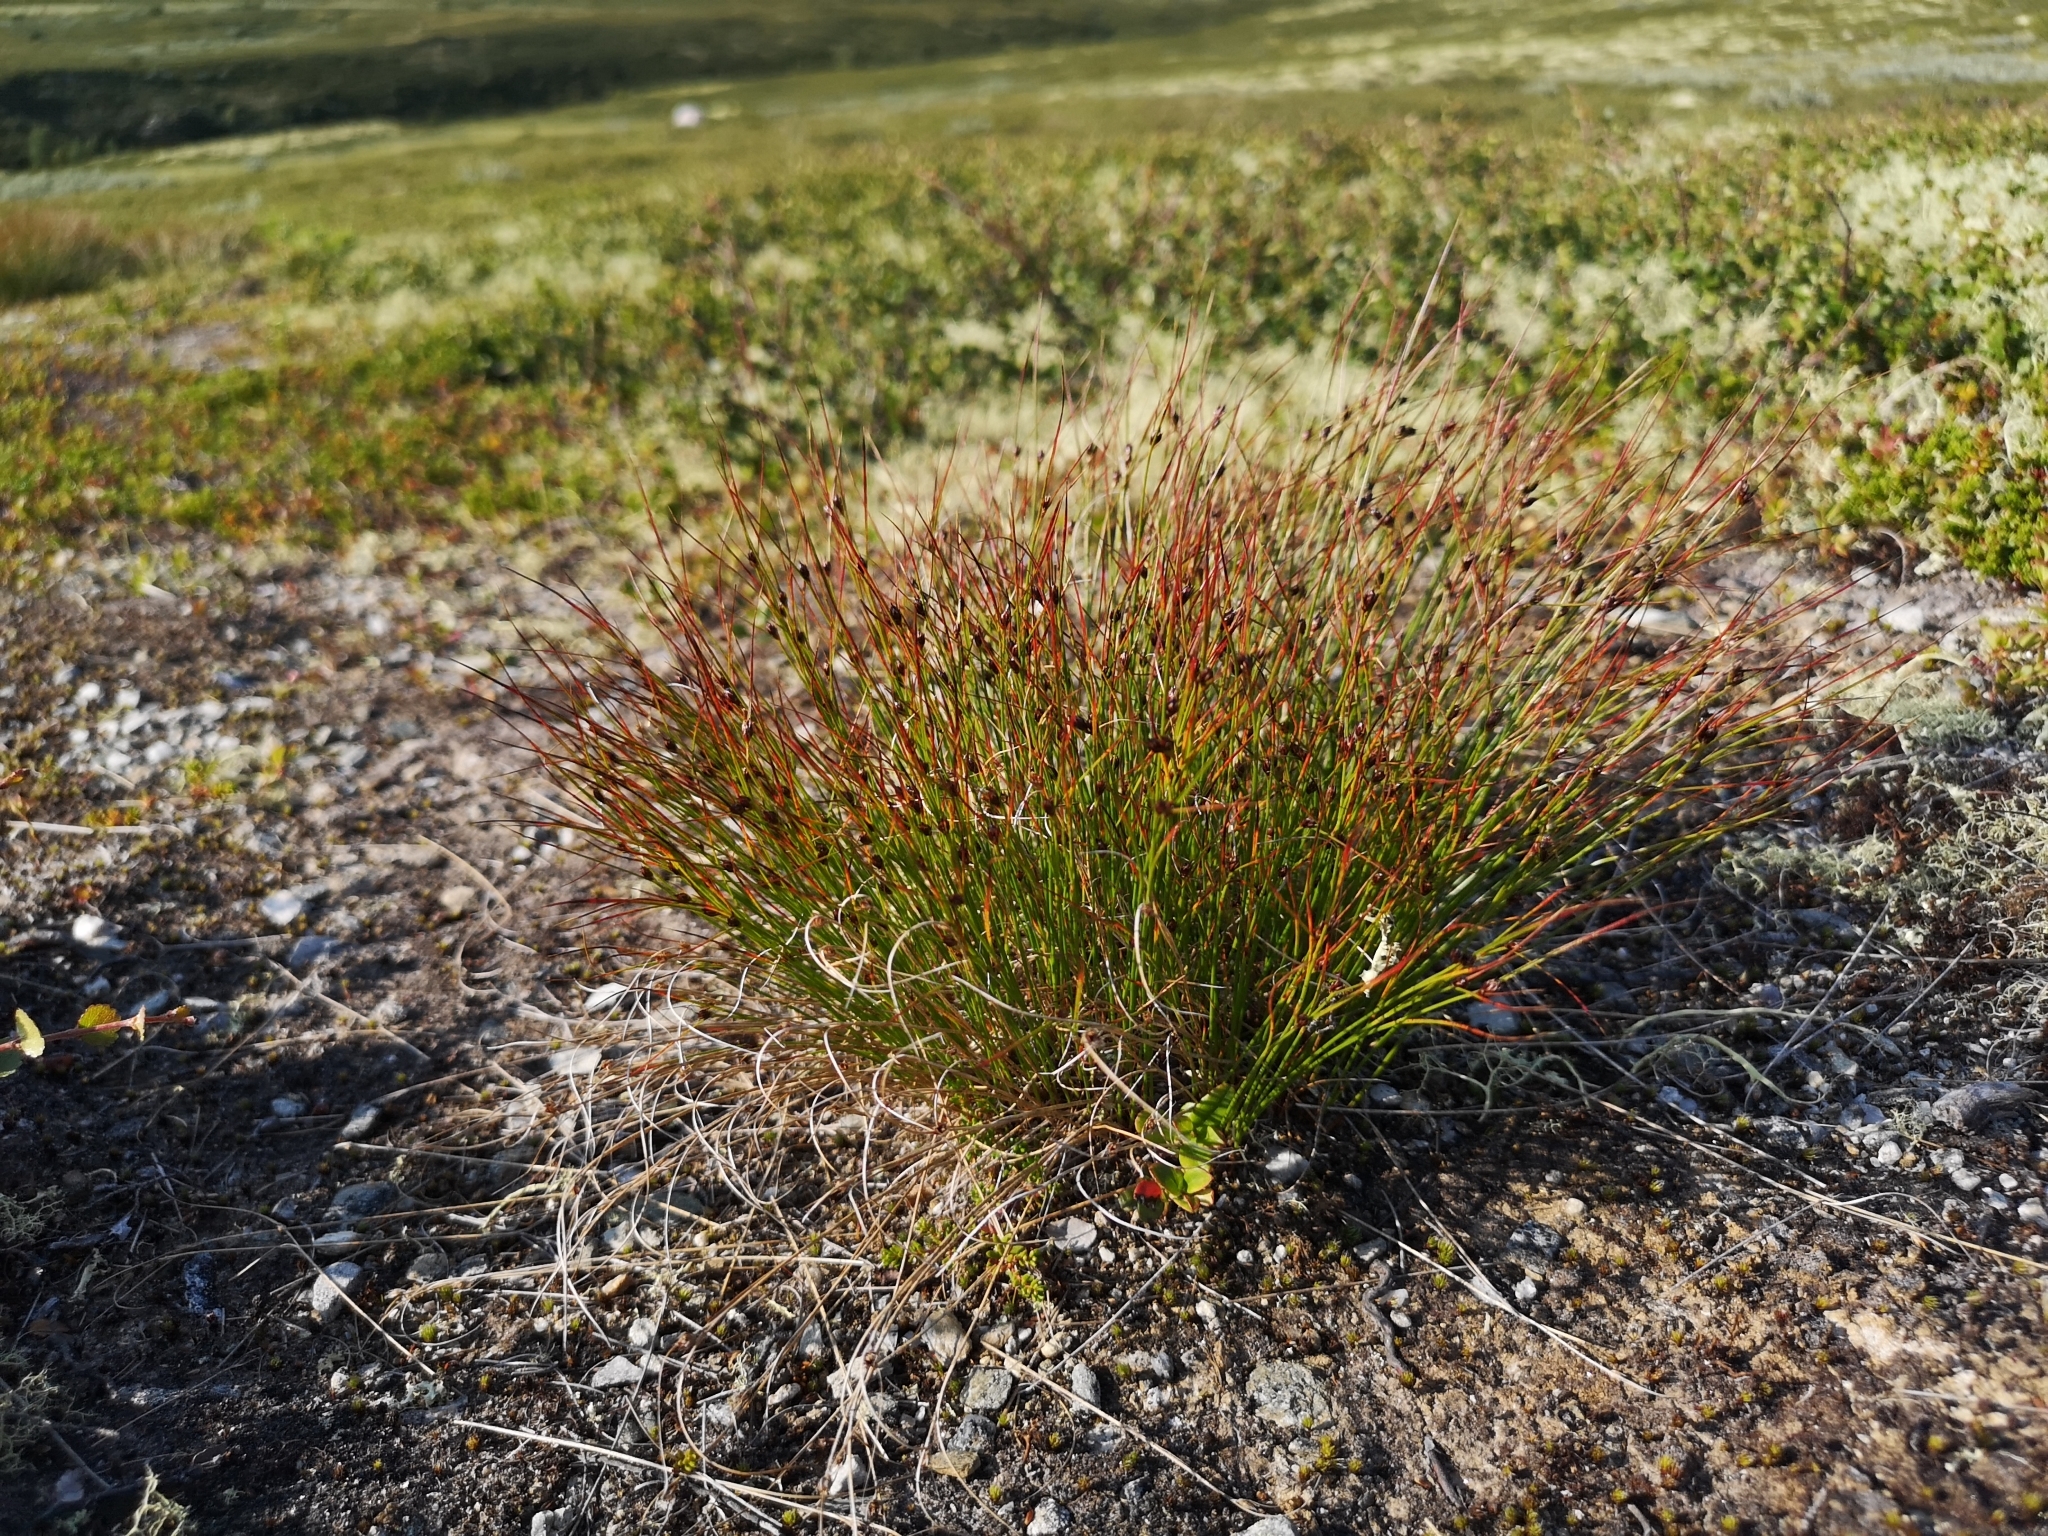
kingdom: Plantae
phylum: Tracheophyta
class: Liliopsida
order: Poales
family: Juncaceae
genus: Oreojuncus
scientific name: Oreojuncus trifidus
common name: Highland rush
